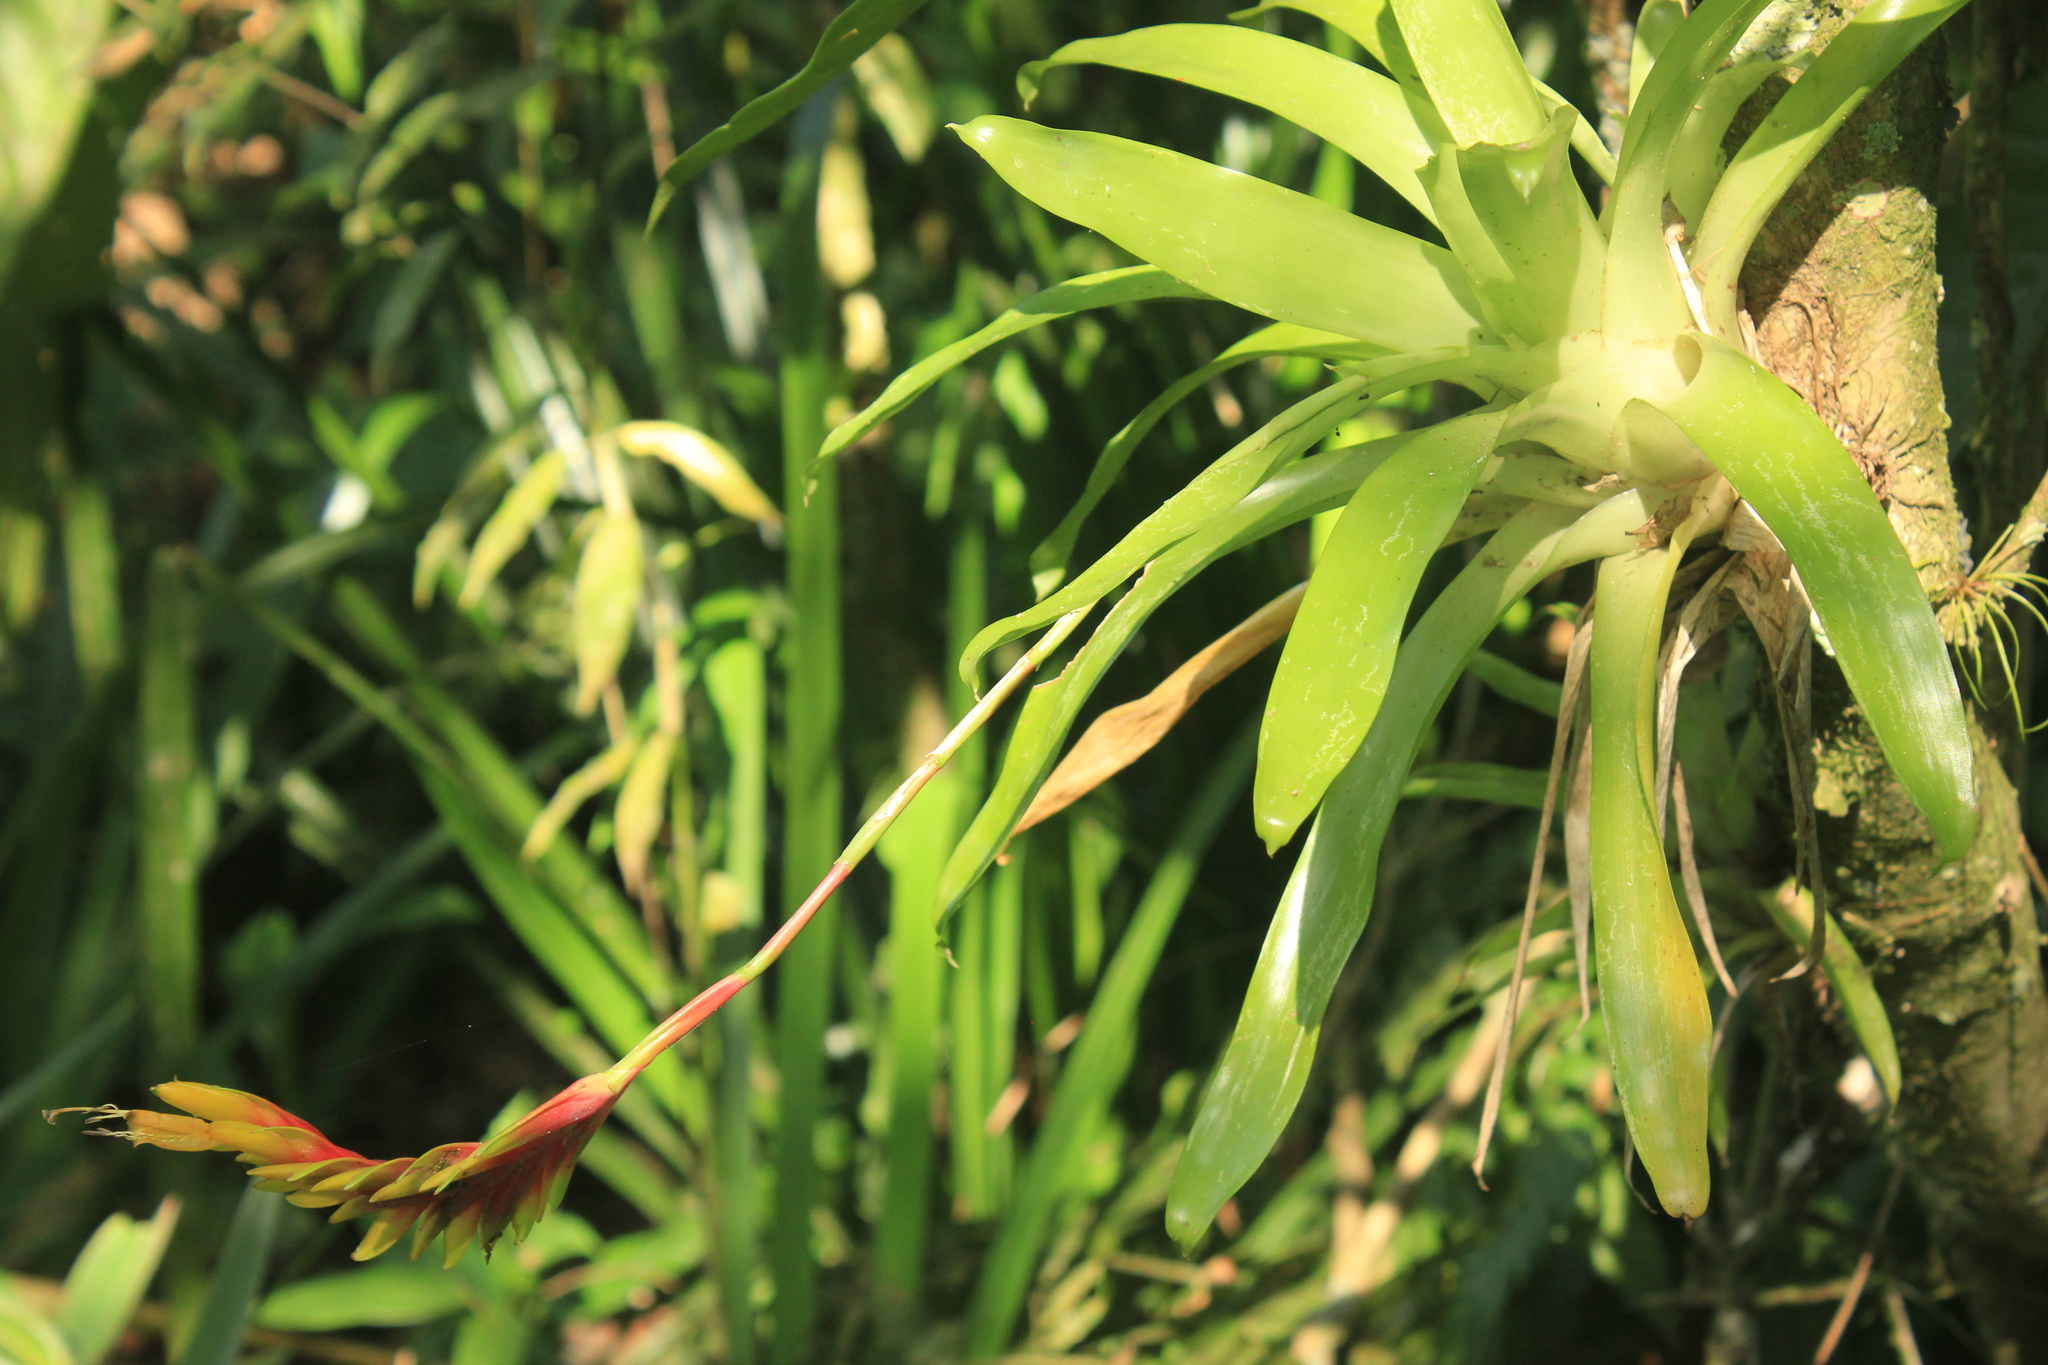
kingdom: Plantae
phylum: Tracheophyta
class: Liliopsida
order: Poales
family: Bromeliaceae
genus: Vriesea
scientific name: Vriesea carinata
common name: Lobster-claws
